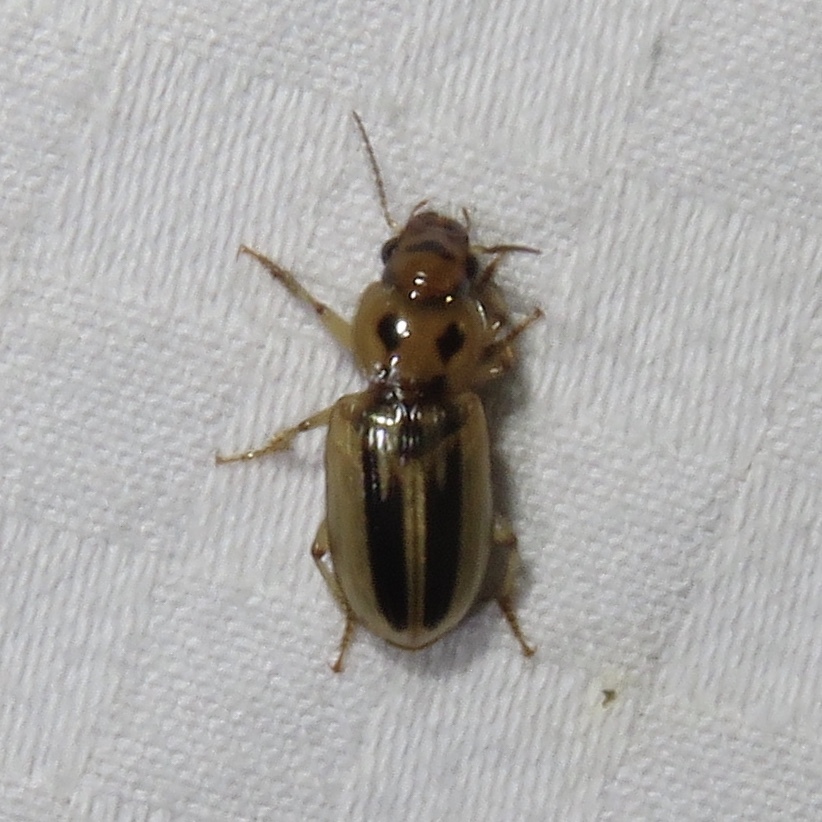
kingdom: Animalia
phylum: Arthropoda
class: Insecta
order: Coleoptera
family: Carabidae
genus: Stenolophus
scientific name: Stenolophus lineola
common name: Lined stenolophus
